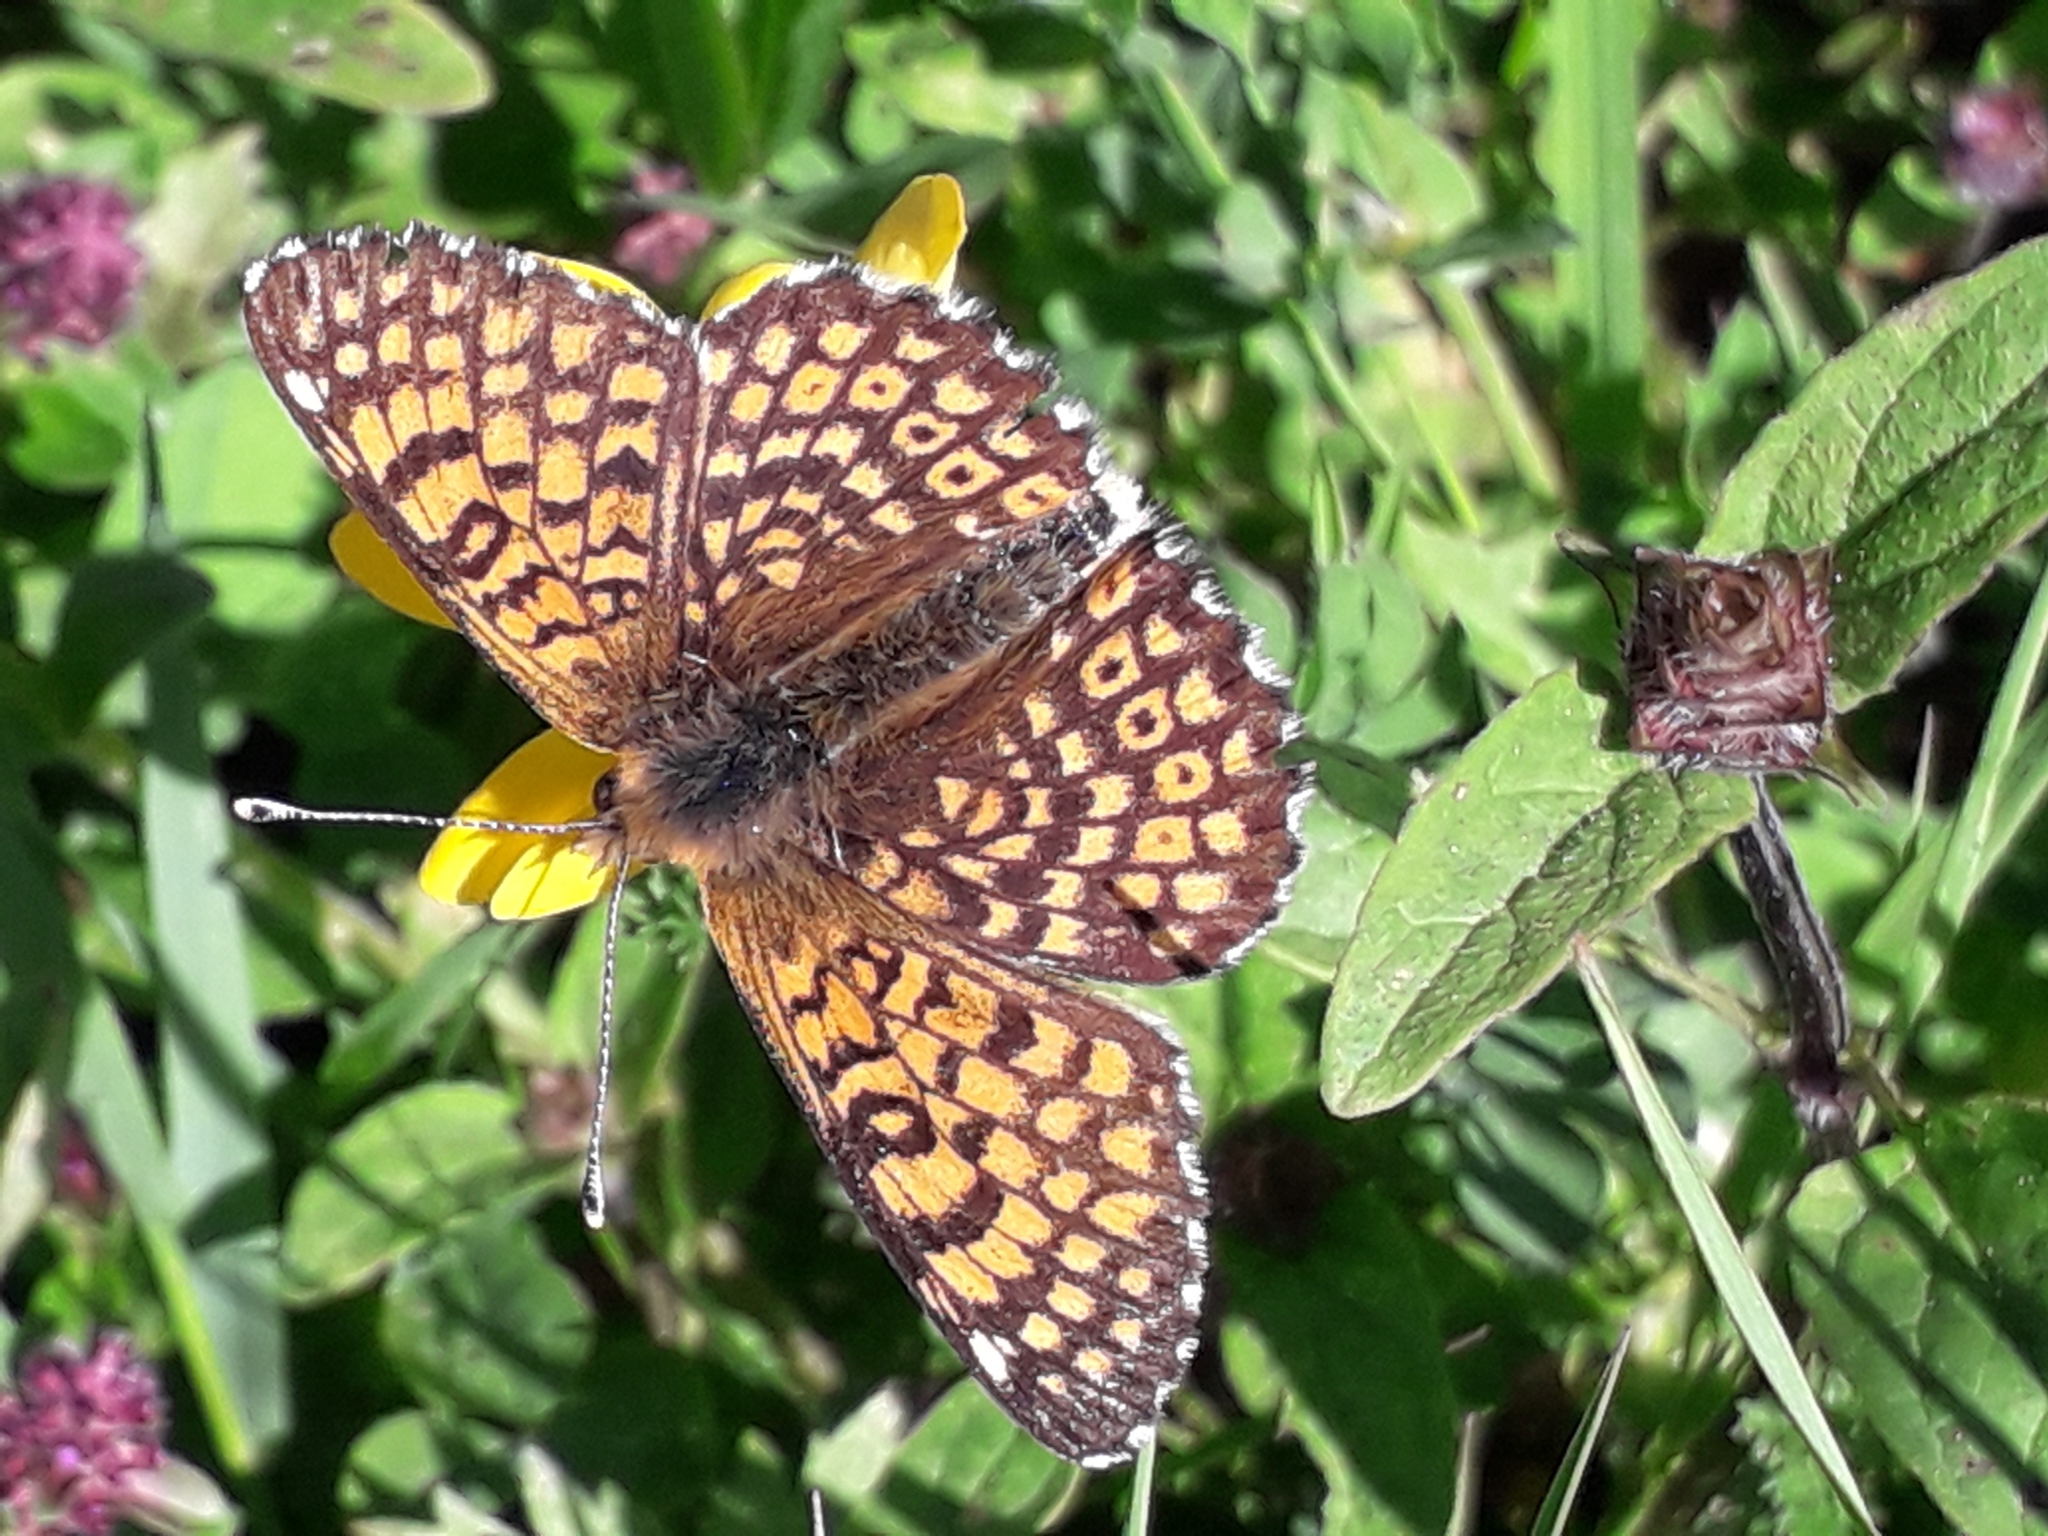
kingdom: Animalia
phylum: Arthropoda
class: Insecta
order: Lepidoptera
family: Nymphalidae
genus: Melitaea
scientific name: Melitaea cinxia
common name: Glanville fritillary
